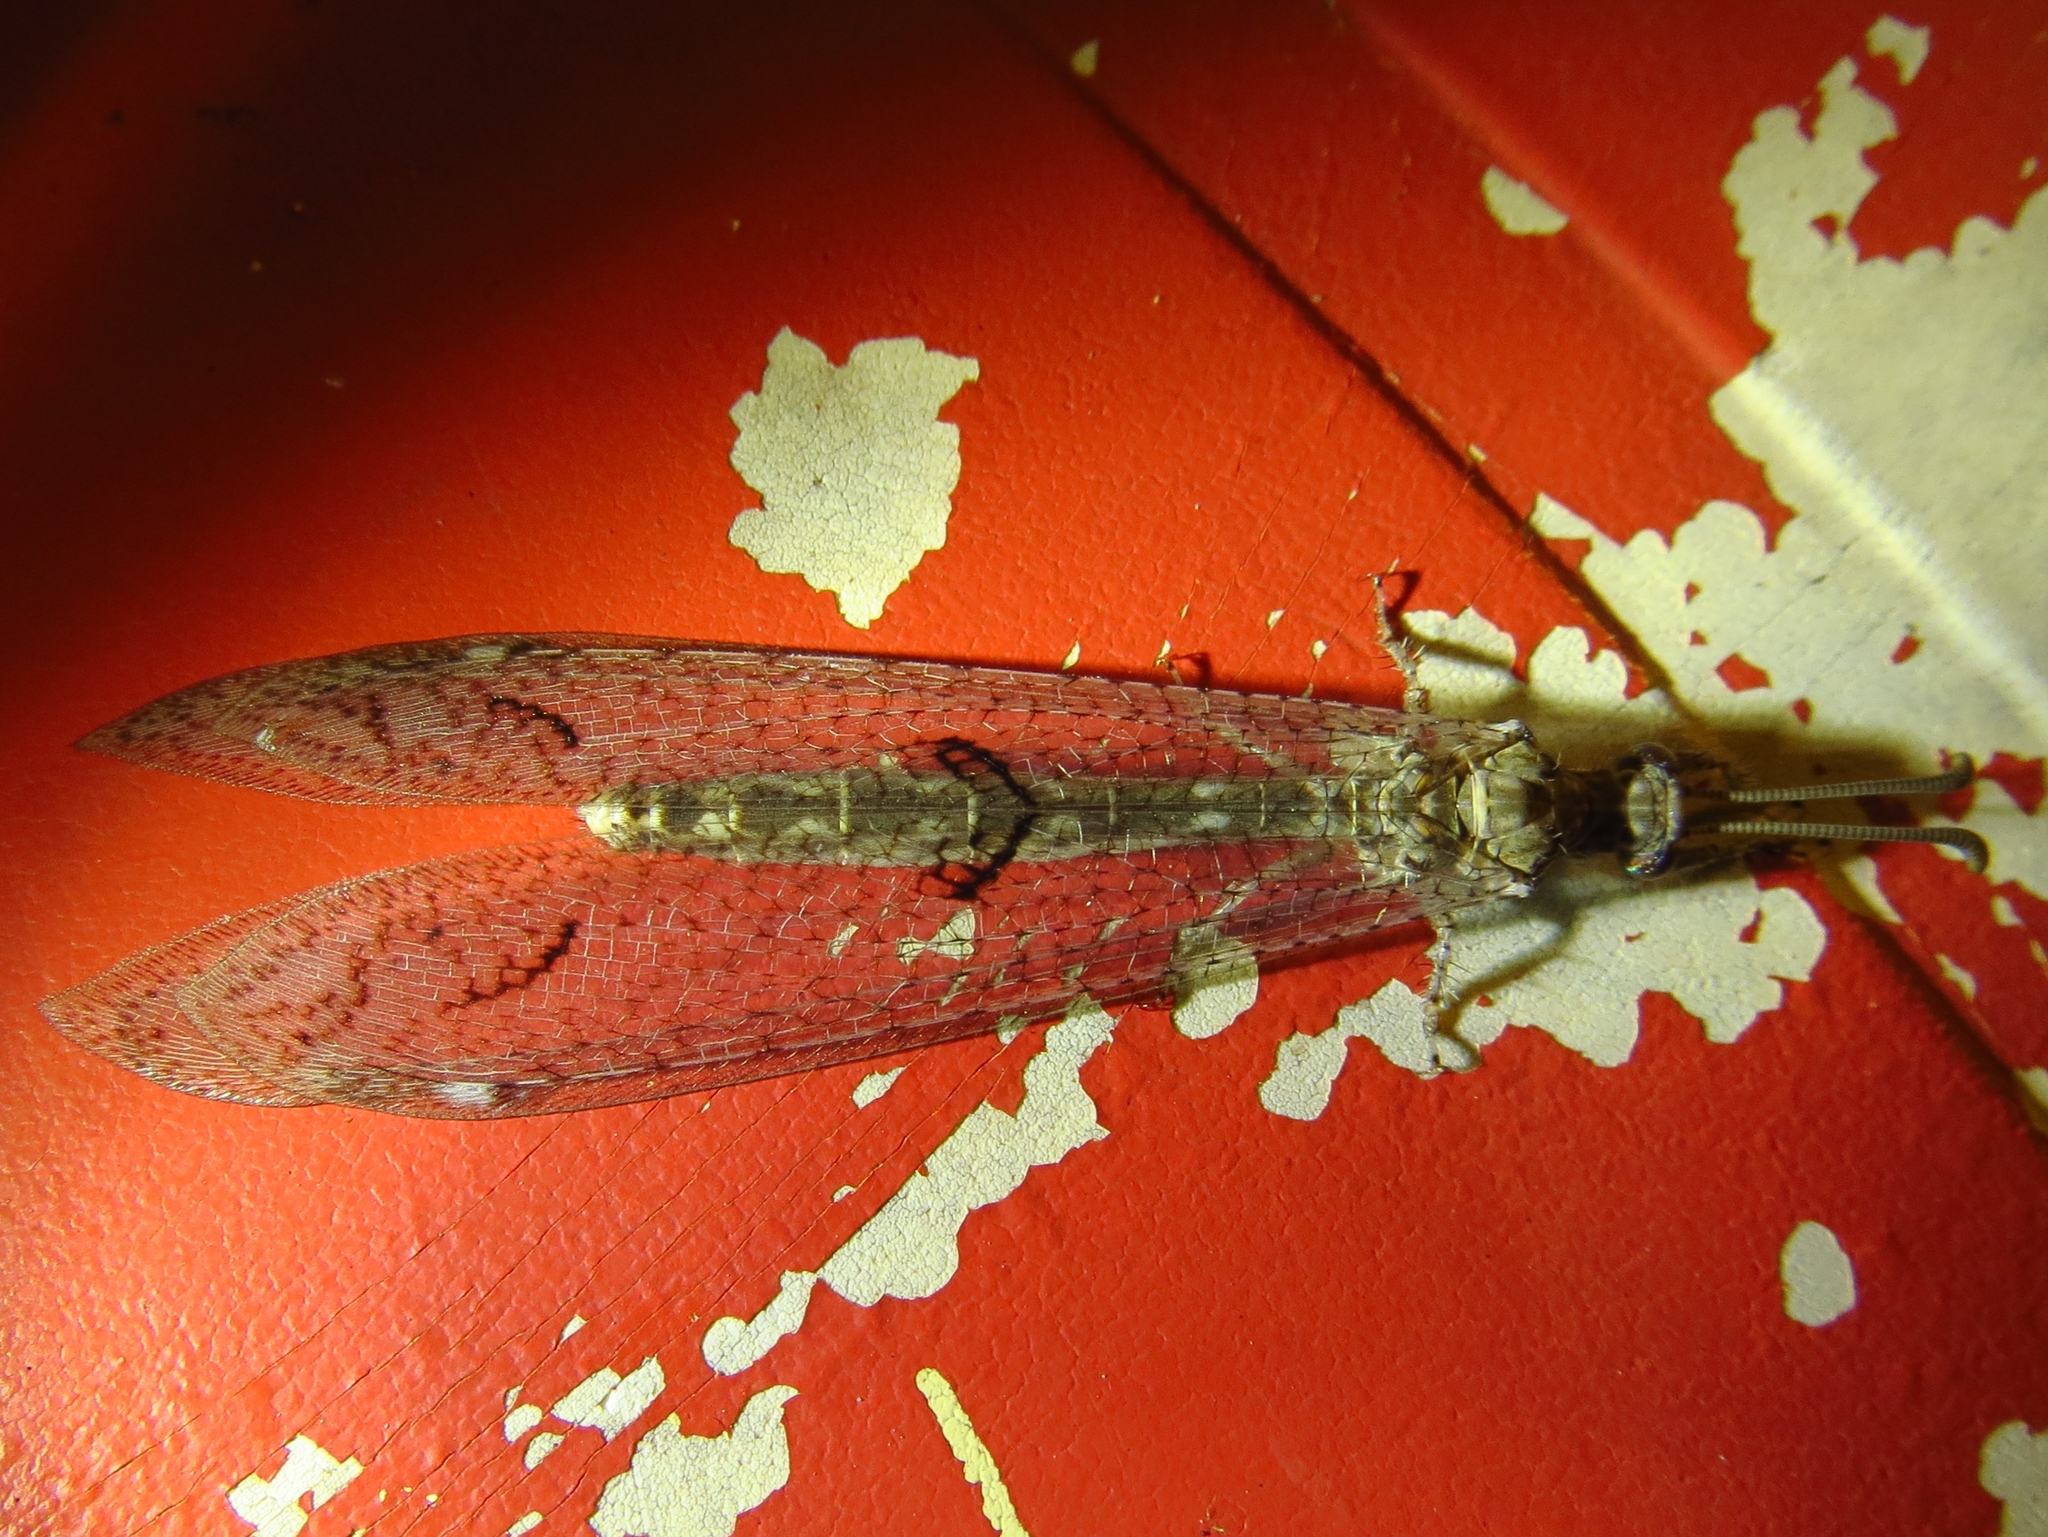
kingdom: Animalia
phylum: Arthropoda
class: Insecta
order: Neuroptera
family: Myrmeleontidae
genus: Euptilon
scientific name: Euptilon ornatum
